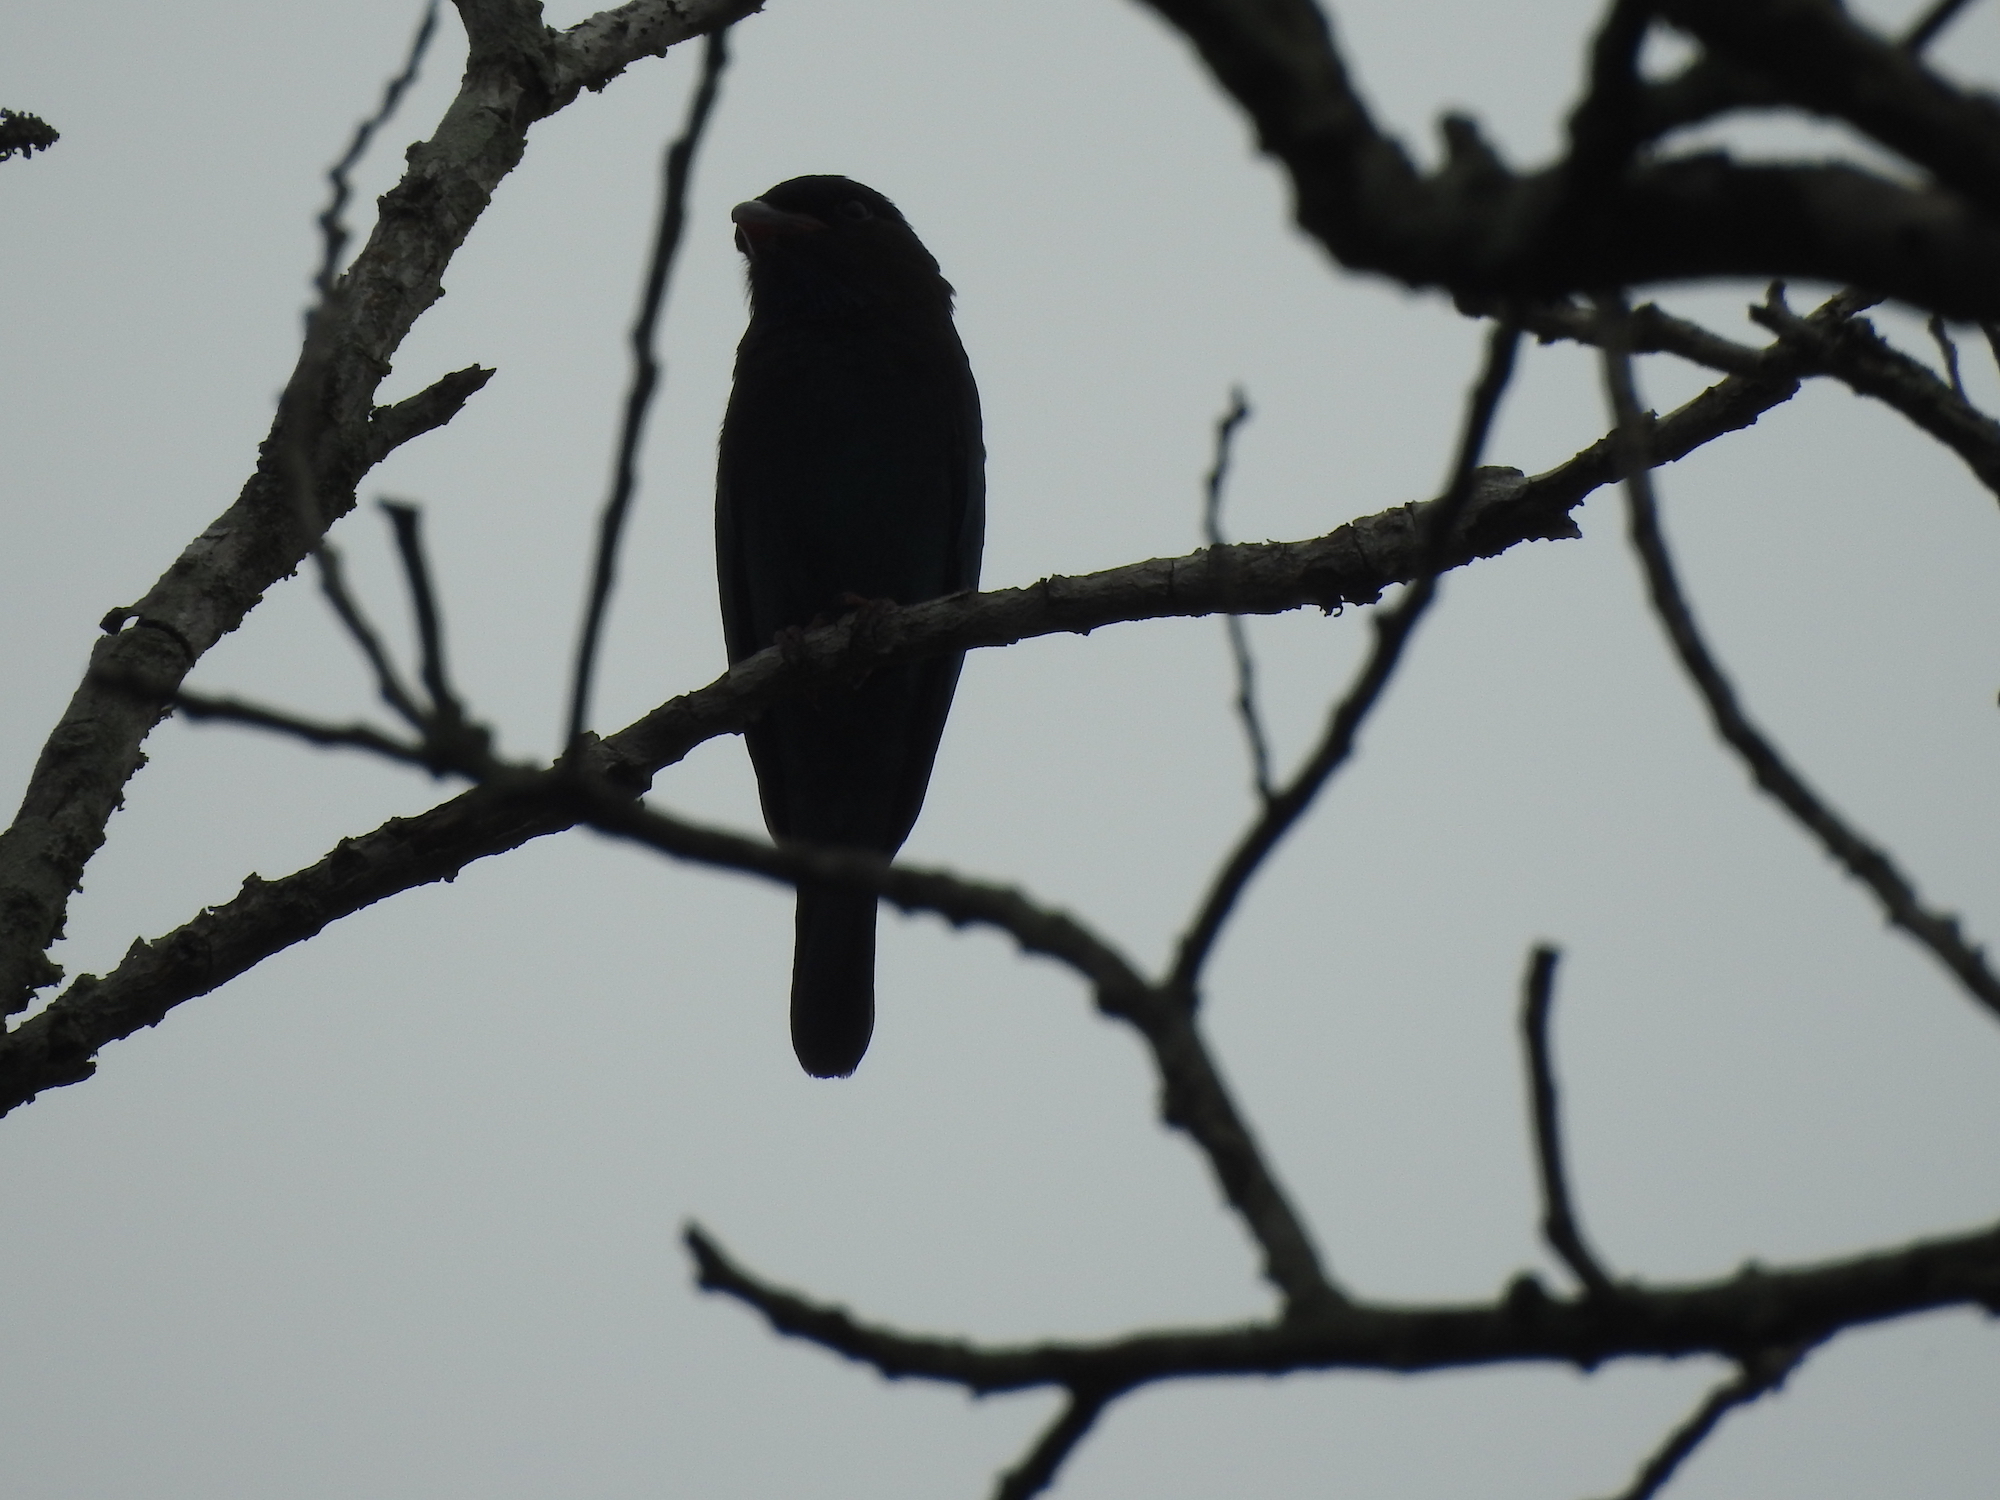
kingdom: Animalia
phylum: Chordata
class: Aves
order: Coraciiformes
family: Coraciidae
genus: Eurystomus
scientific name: Eurystomus orientalis
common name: Oriental dollarbird
